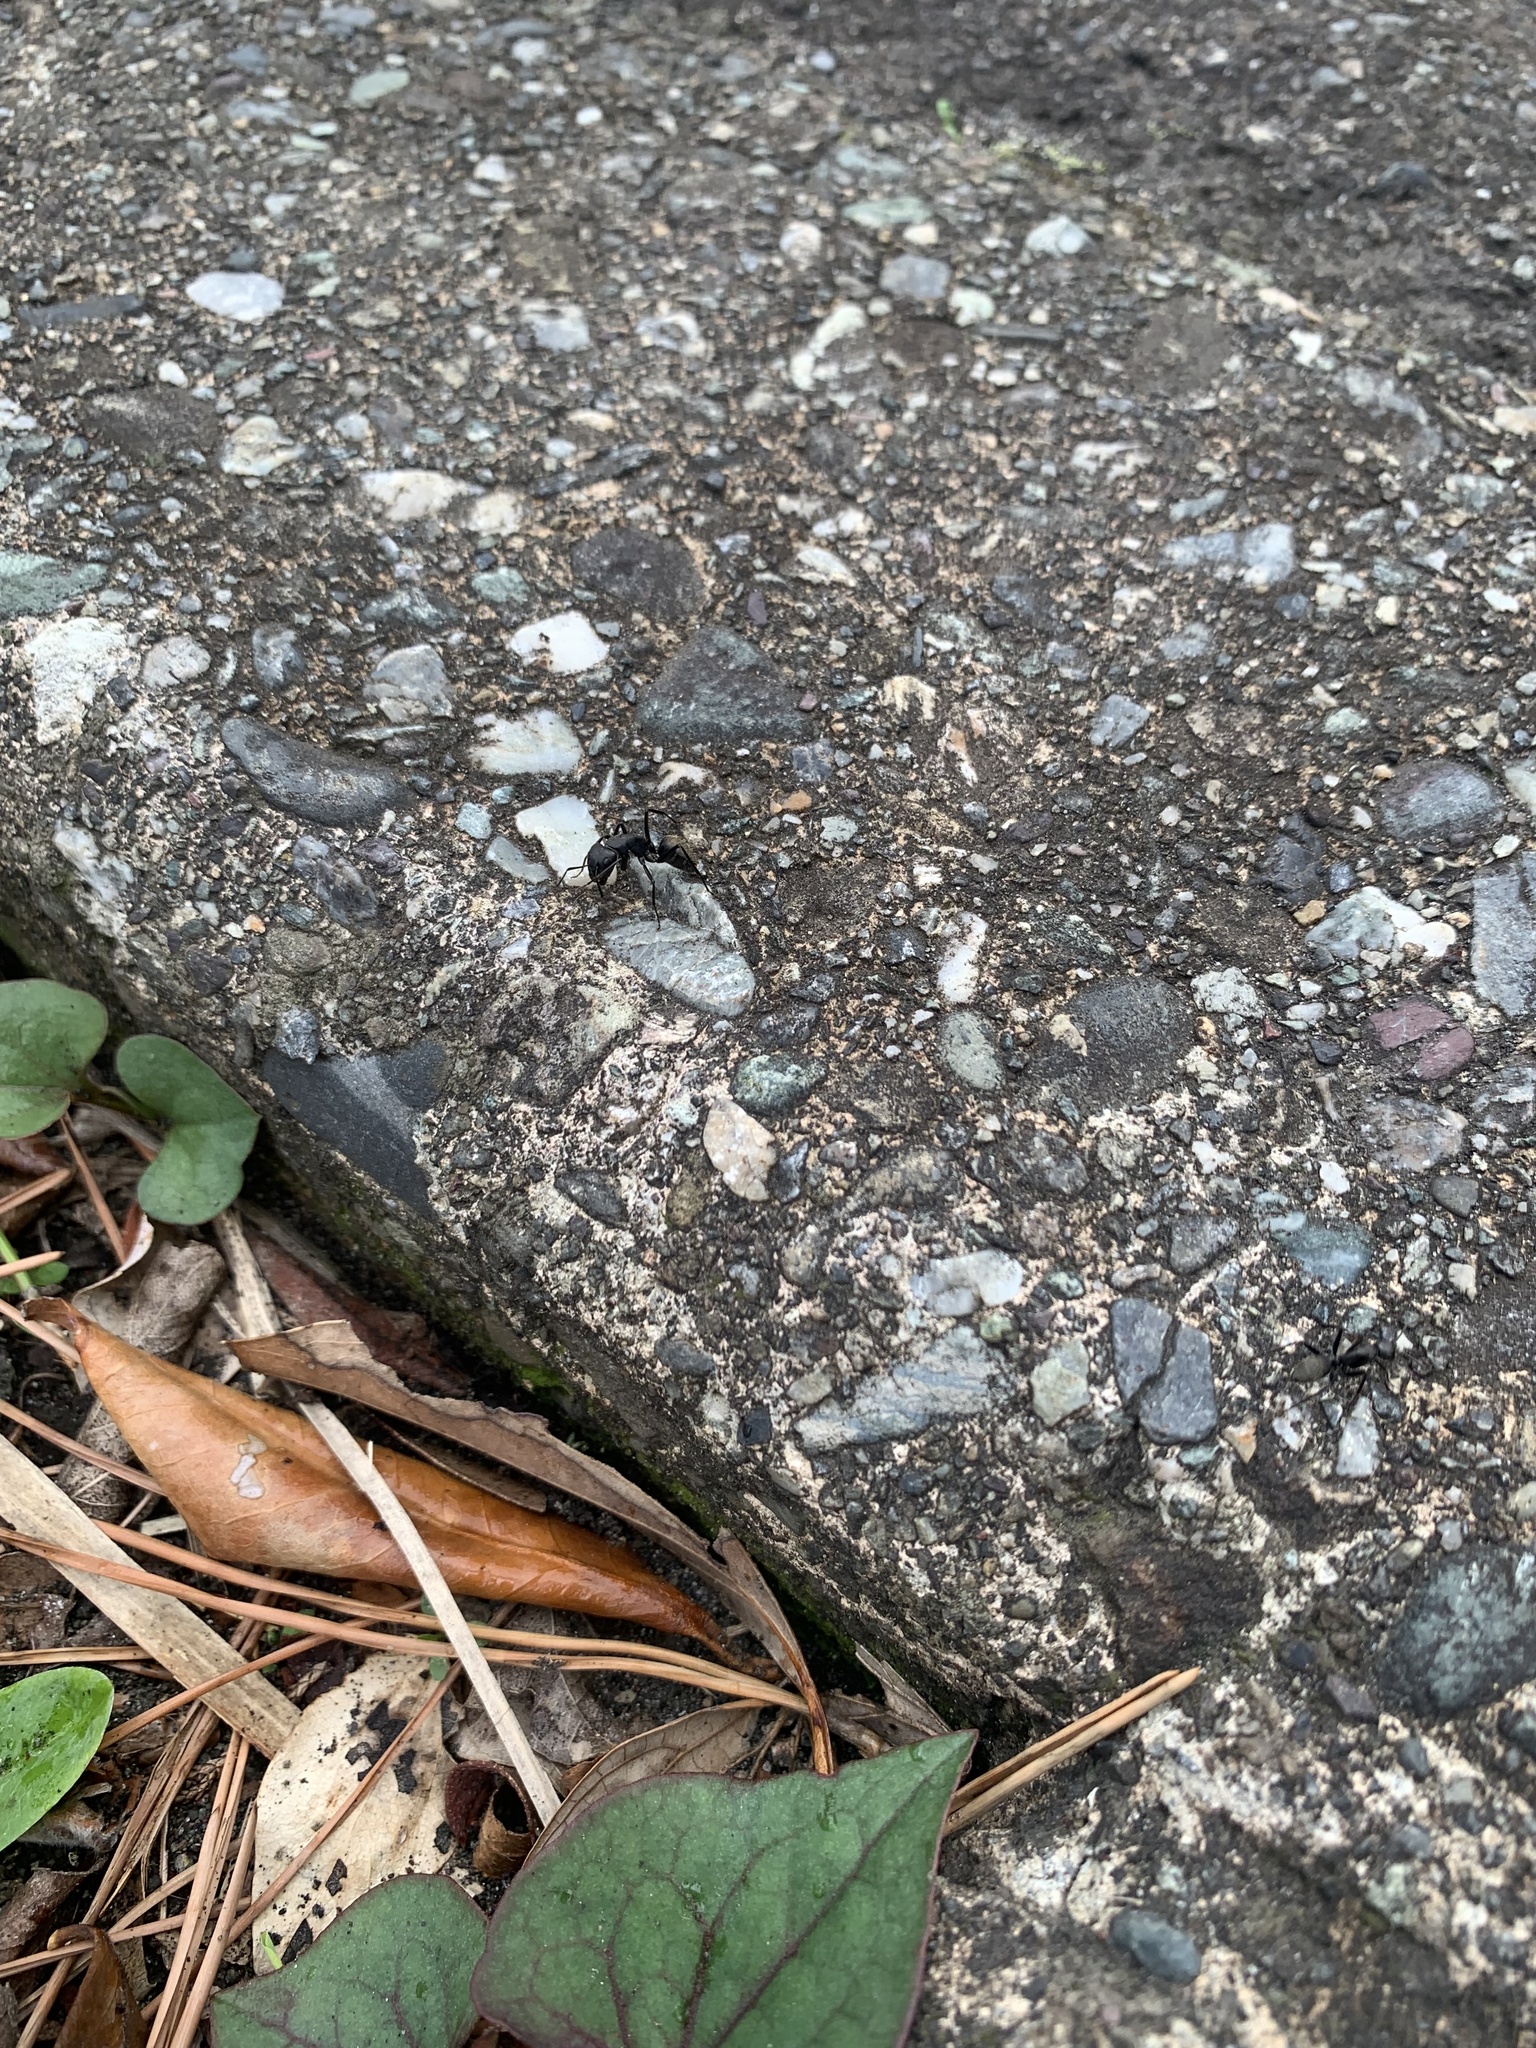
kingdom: Animalia
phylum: Arthropoda
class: Insecta
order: Hymenoptera
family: Formicidae
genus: Camponotus
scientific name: Camponotus japonicus
